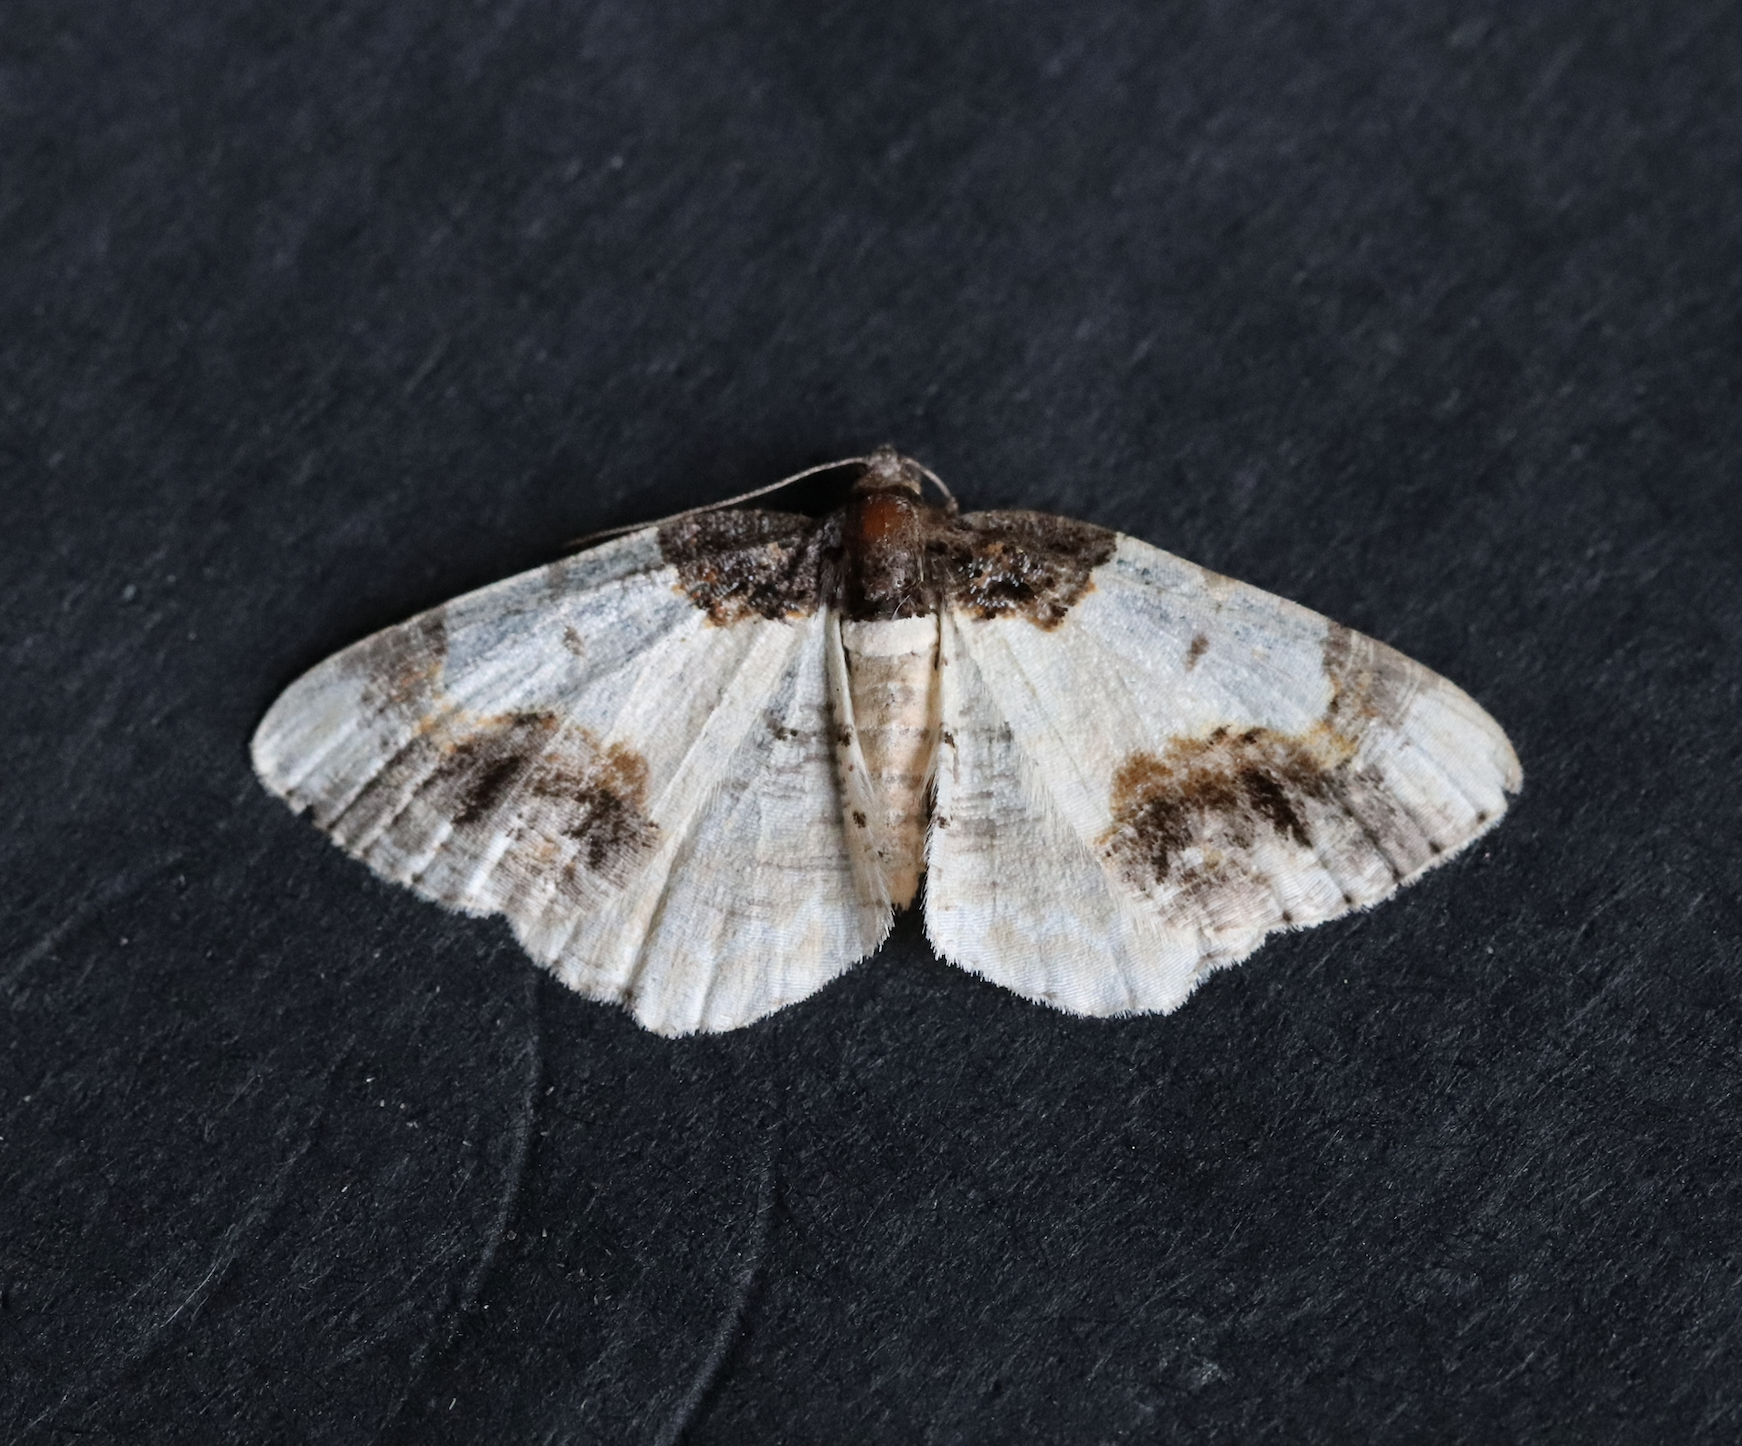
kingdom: Animalia
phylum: Arthropoda
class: Insecta
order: Lepidoptera
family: Geometridae
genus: Ligdia
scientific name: Ligdia adustata
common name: Scorched carpet
